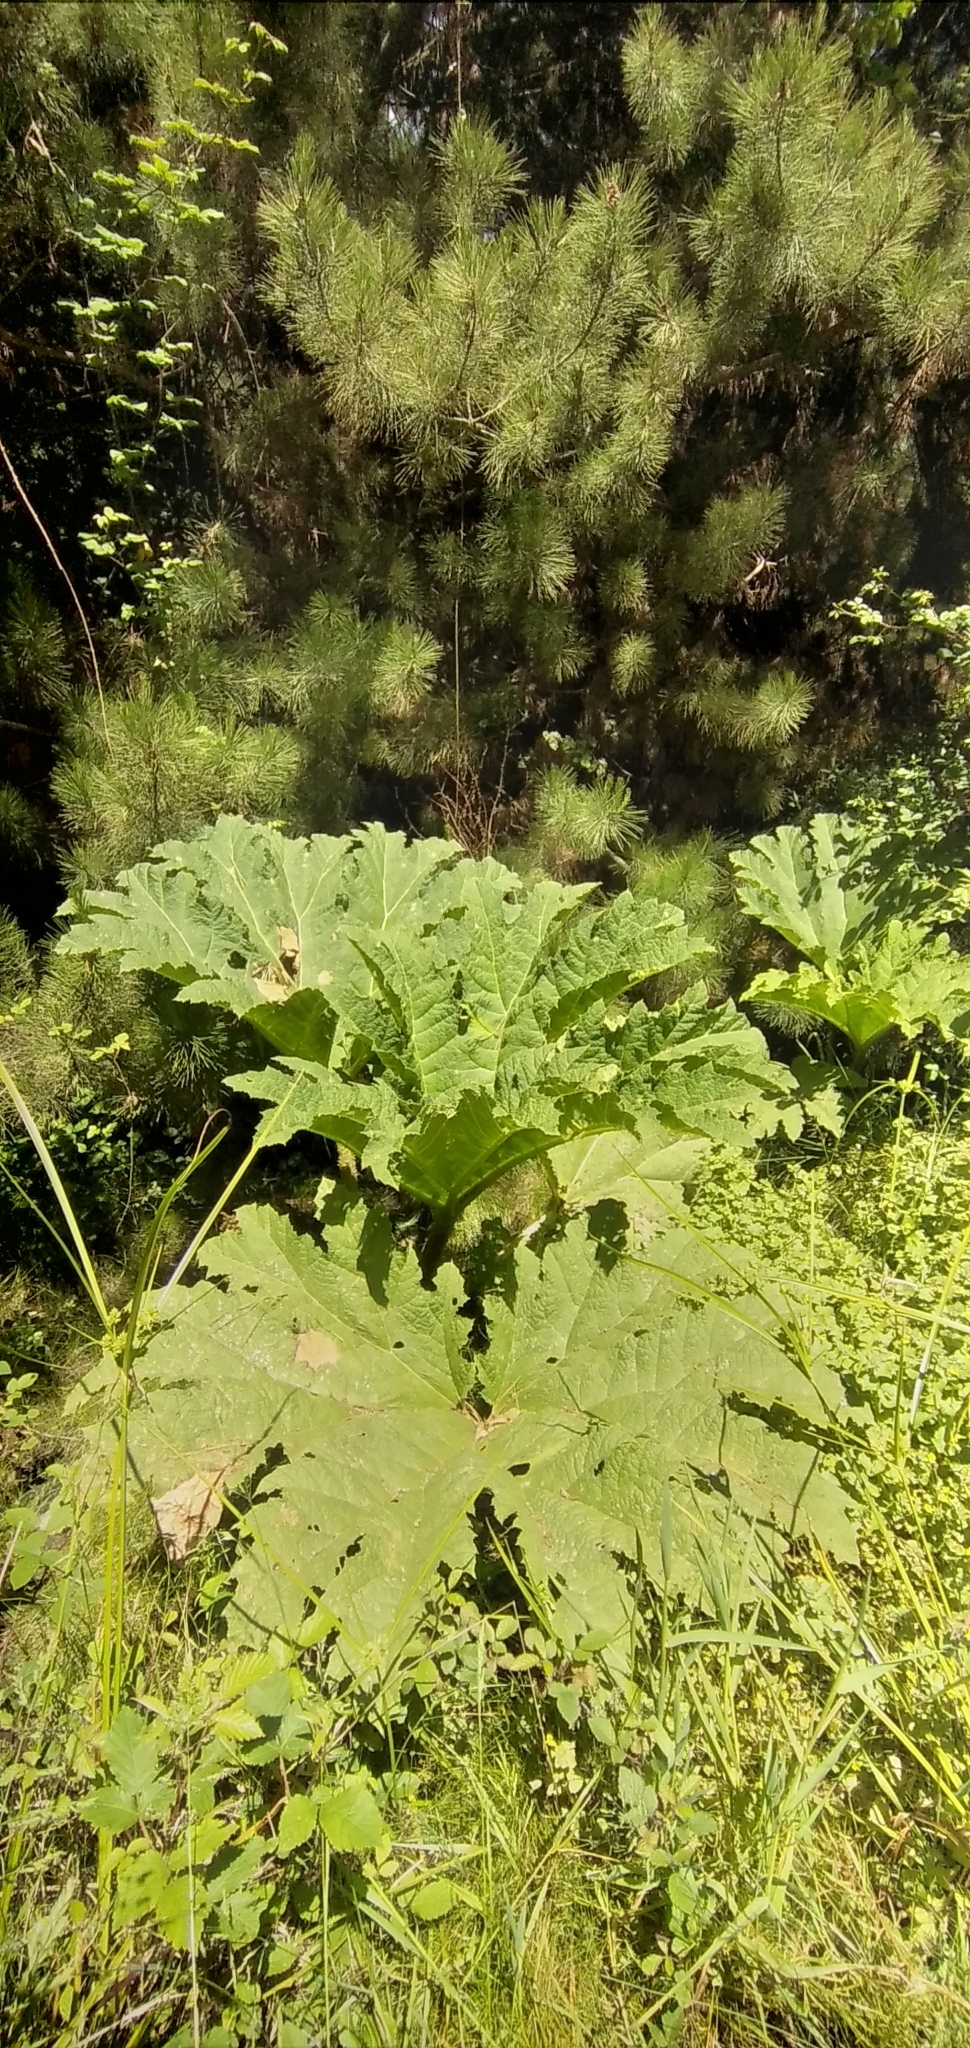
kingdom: Plantae
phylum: Tracheophyta
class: Magnoliopsida
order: Gunnerales
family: Gunneraceae
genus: Gunnera
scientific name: Gunnera tinctoria
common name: Giant-rhubarb
